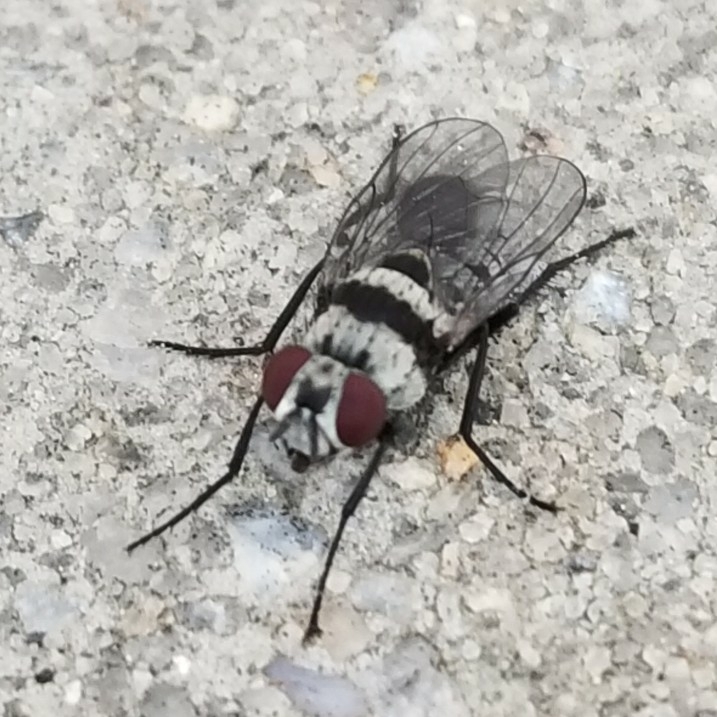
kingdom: Animalia
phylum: Arthropoda
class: Insecta
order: Diptera
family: Anthomyiidae
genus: Anthomyia
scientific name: Anthomyia illocata
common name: Fly
